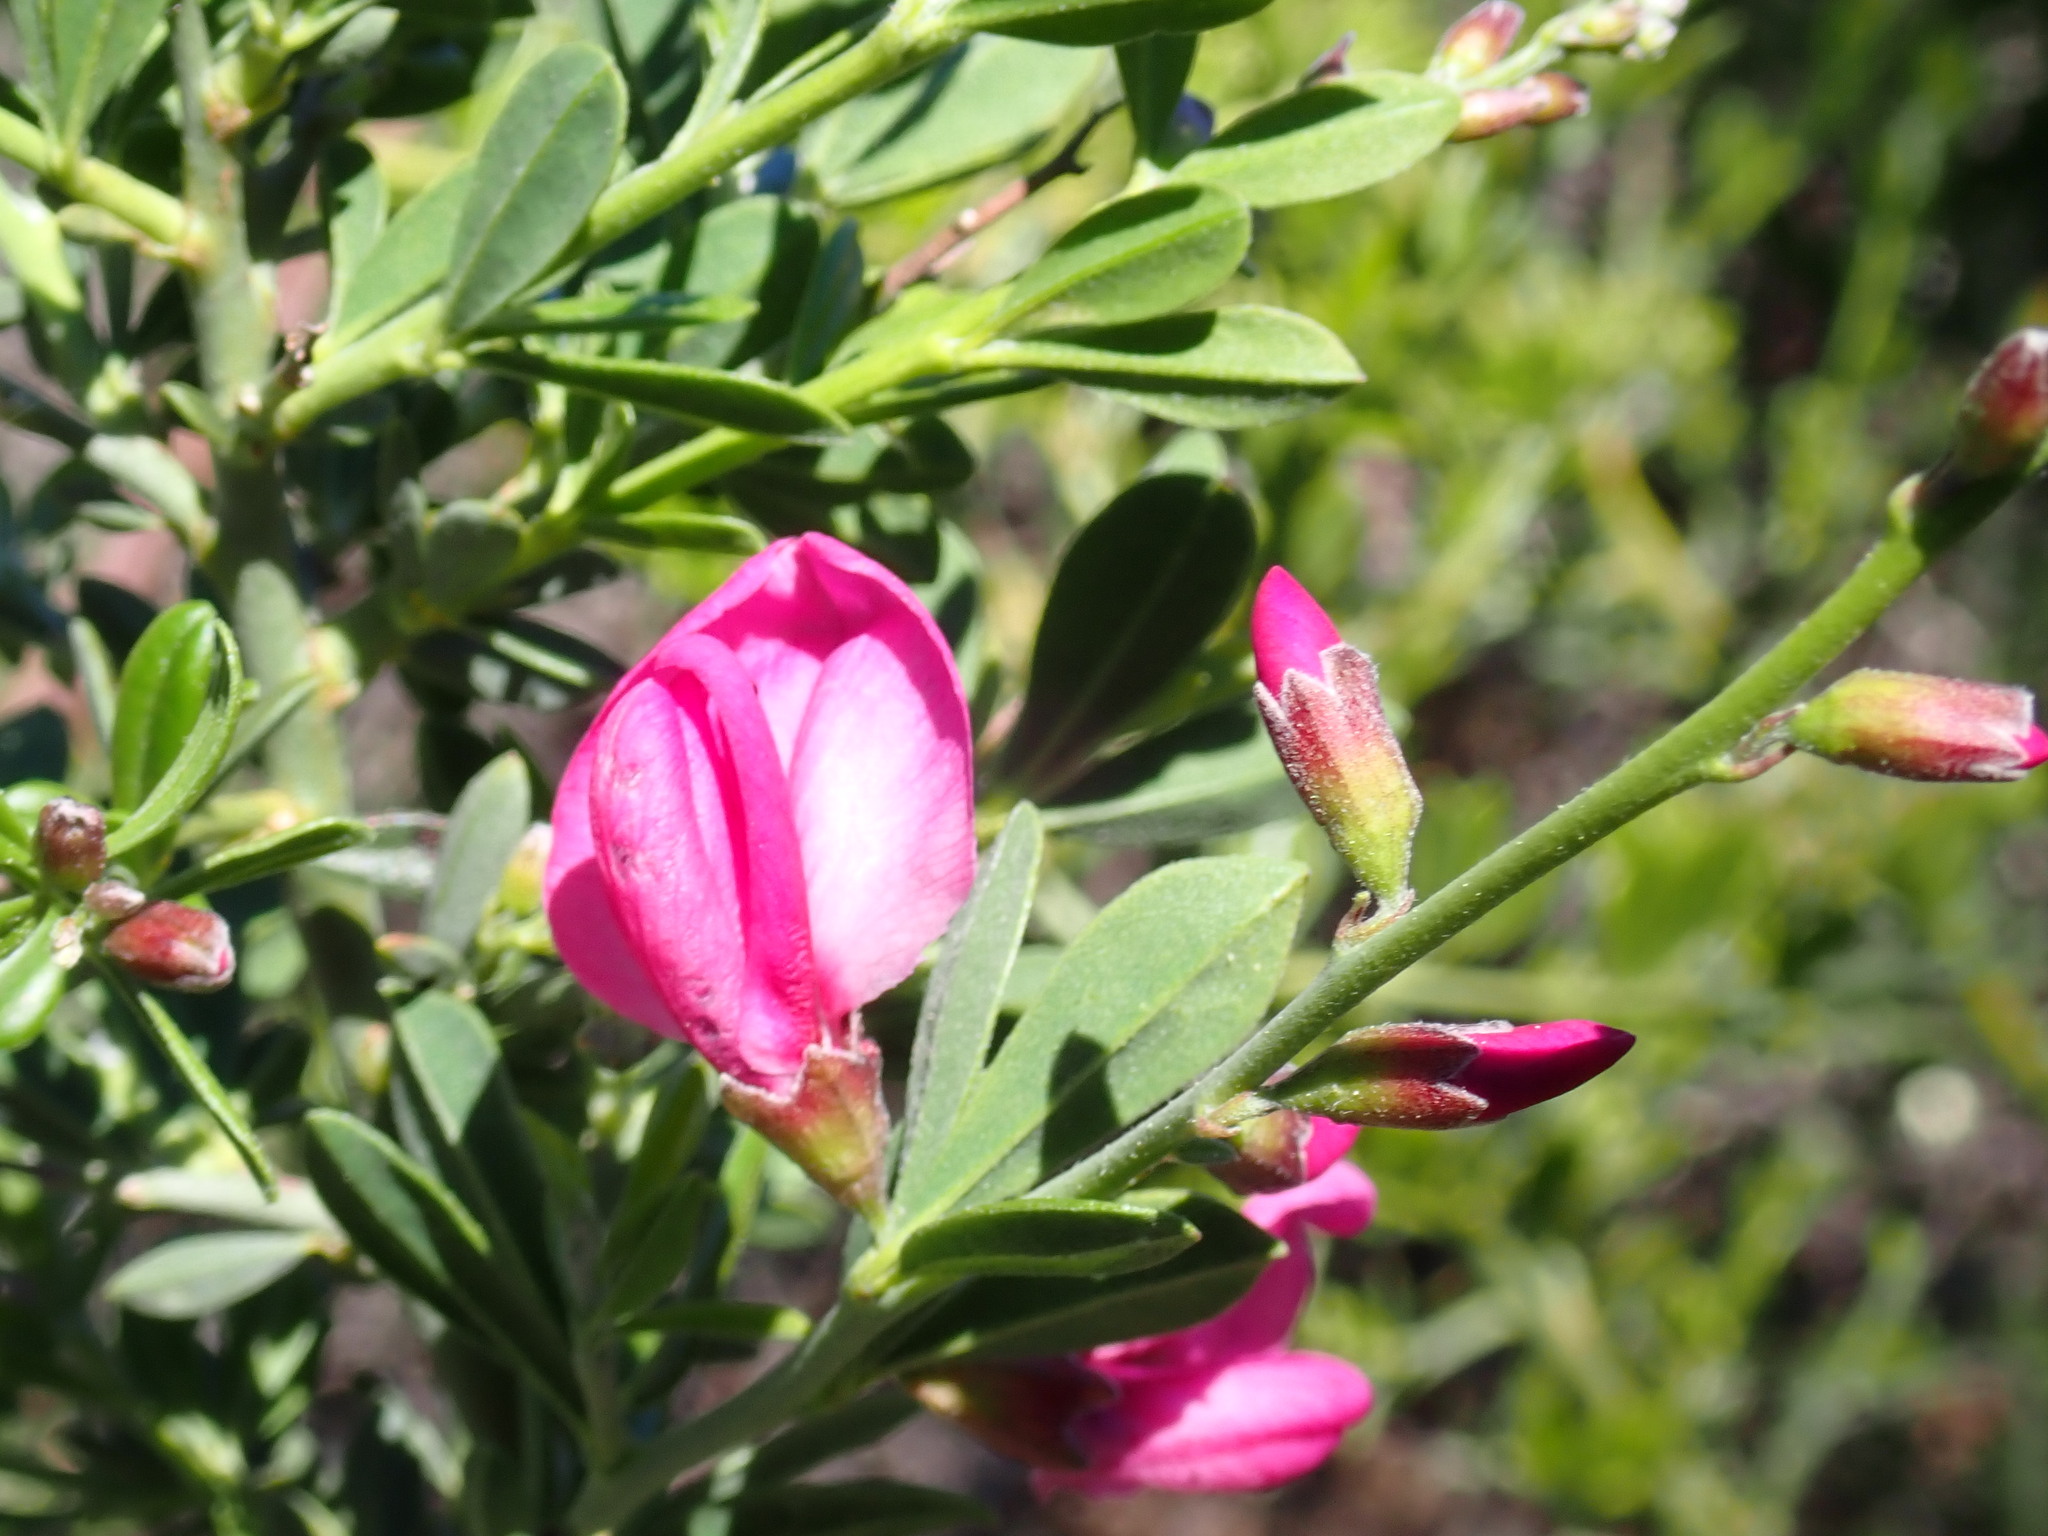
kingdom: Plantae
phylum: Tracheophyta
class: Magnoliopsida
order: Fabales
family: Fabaceae
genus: Pickeringia
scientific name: Pickeringia montana
